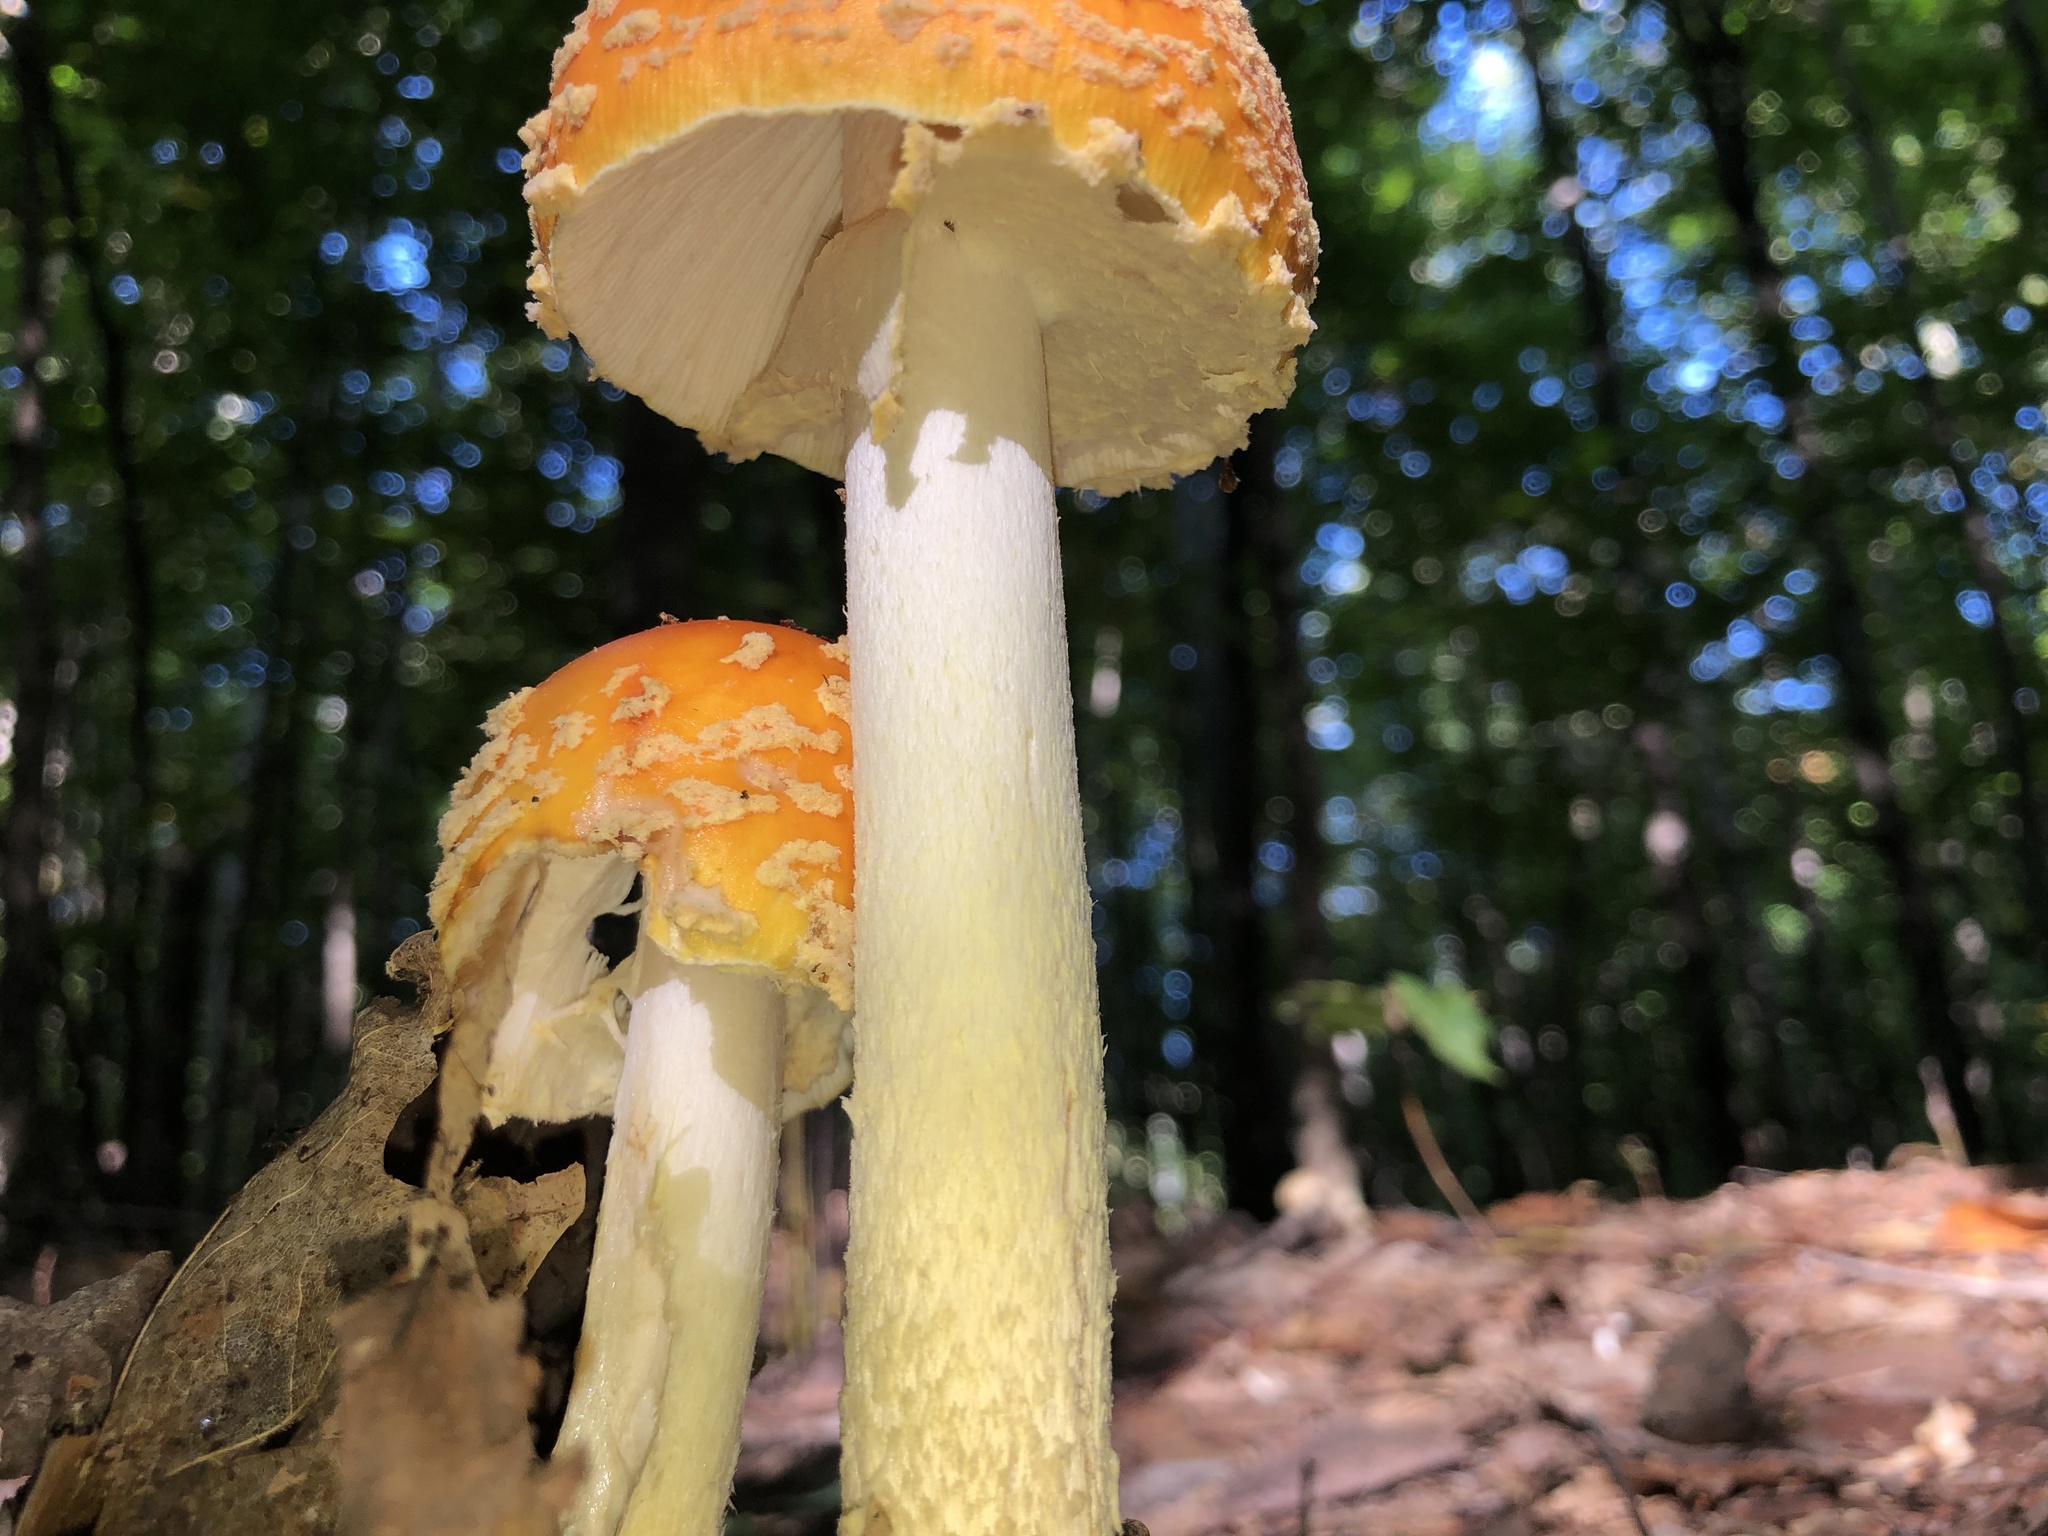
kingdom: Fungi
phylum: Basidiomycota
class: Agaricomycetes
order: Agaricales
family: Amanitaceae
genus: Amanita
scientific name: Amanita muscaria
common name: Fly agaric
